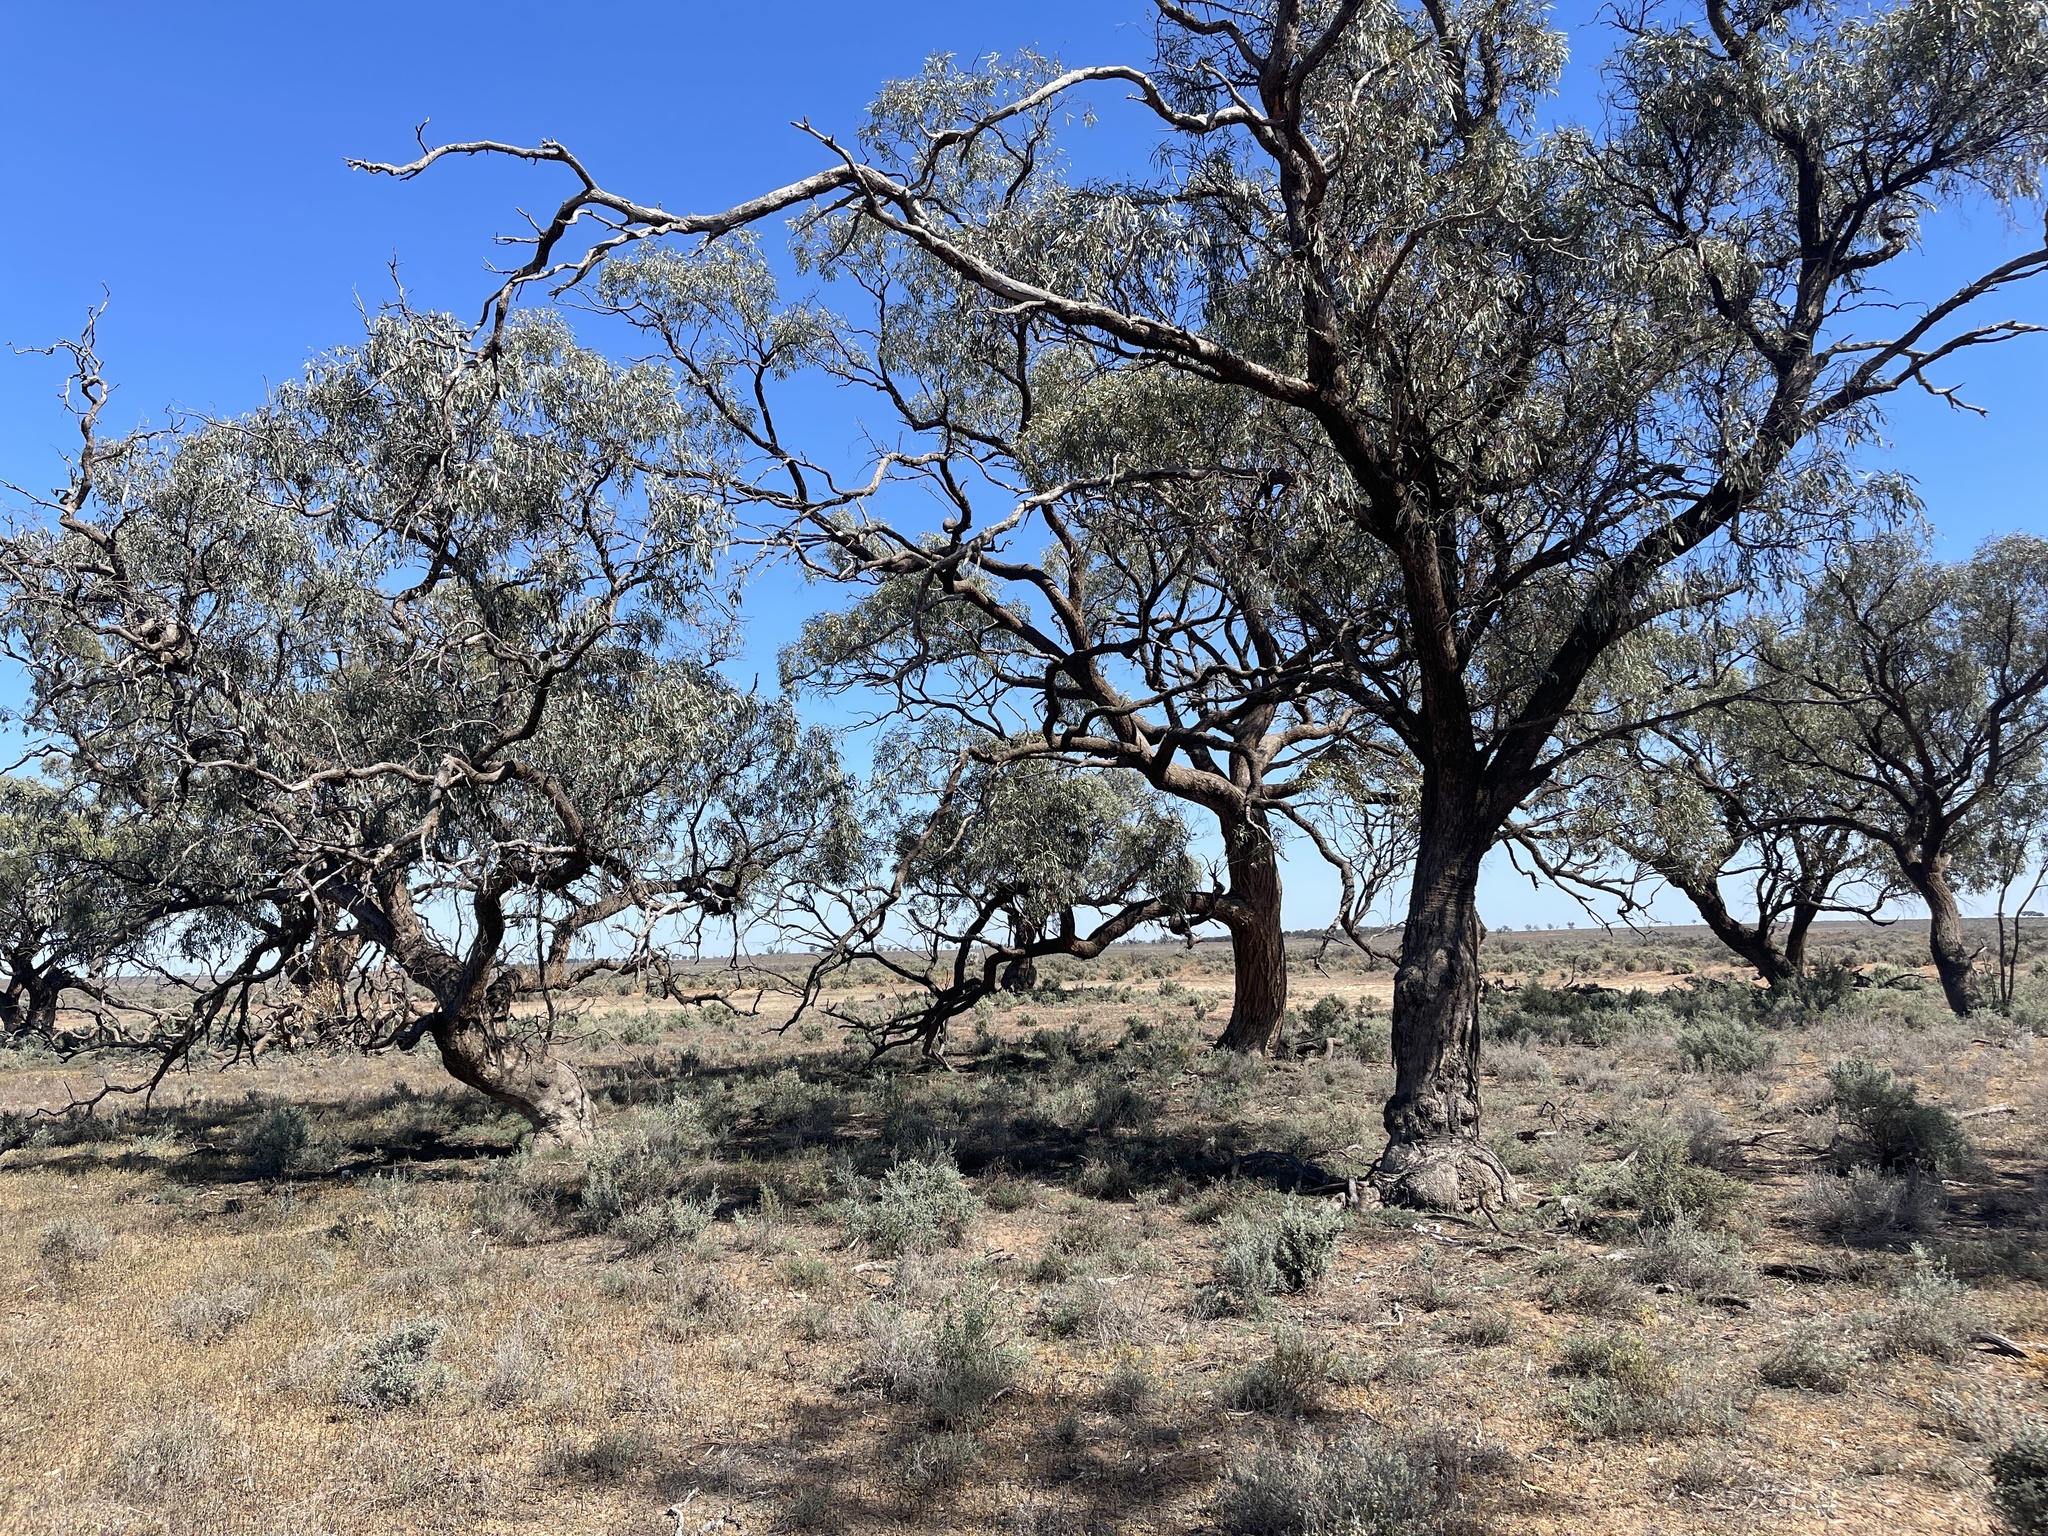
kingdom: Plantae
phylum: Tracheophyta
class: Magnoliopsida
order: Myrtales
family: Myrtaceae
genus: Eucalyptus
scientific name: Eucalyptus largiflorens
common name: Black-box
